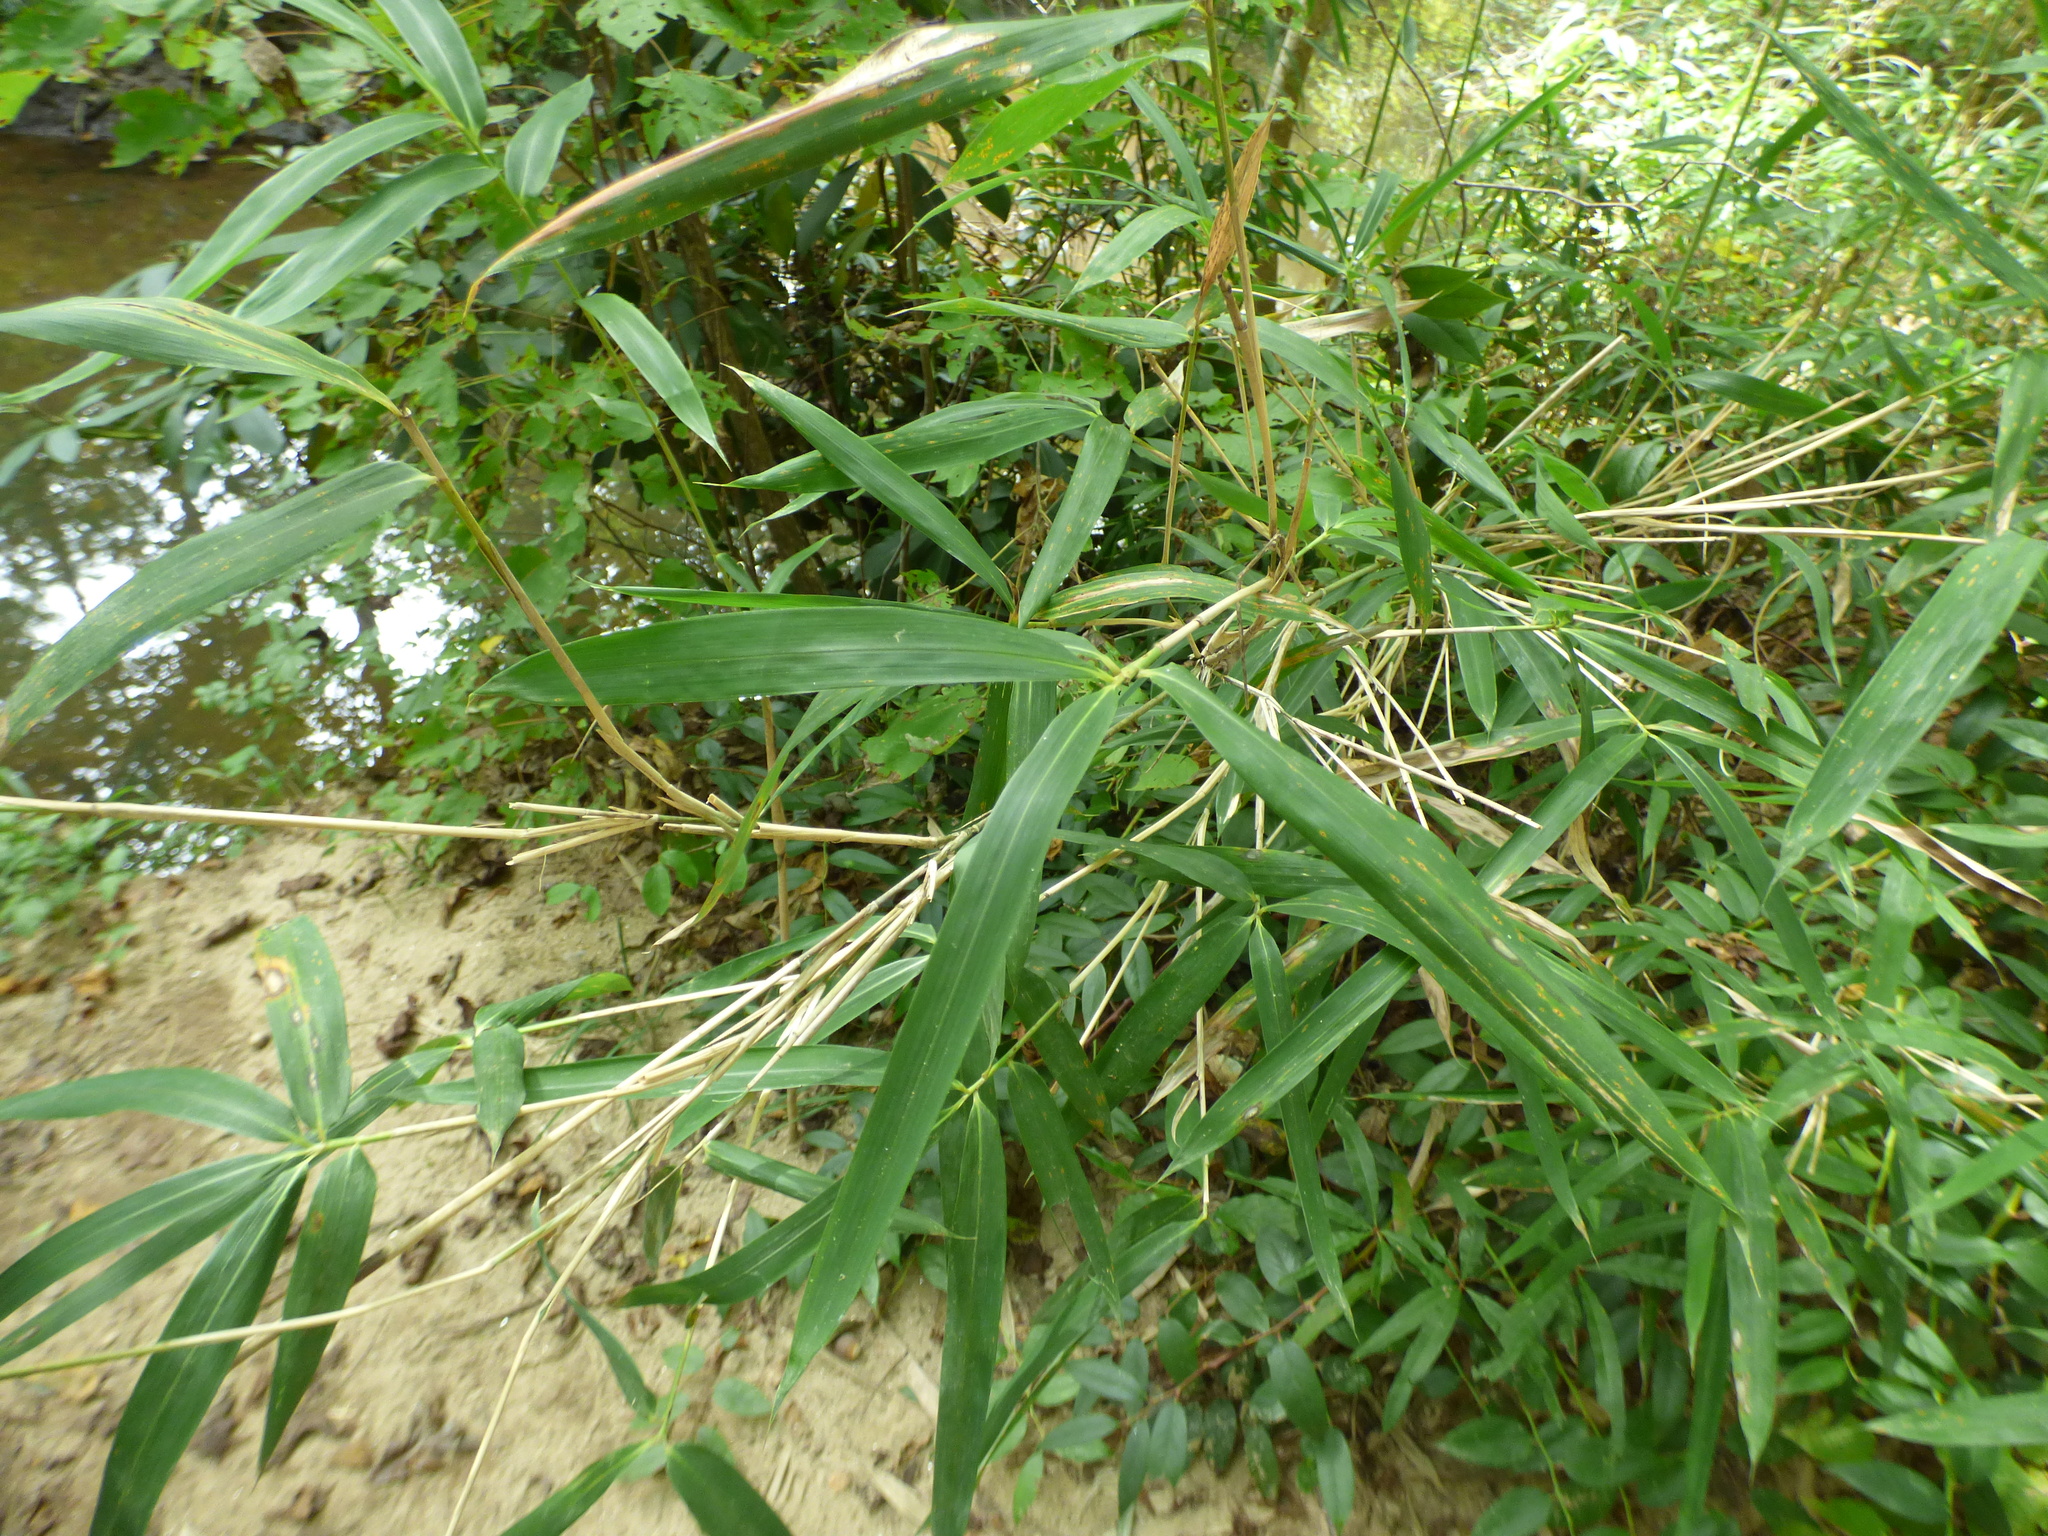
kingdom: Plantae
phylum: Tracheophyta
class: Liliopsida
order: Poales
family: Poaceae
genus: Arundinaria
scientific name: Arundinaria gigantea
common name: Giant cane
